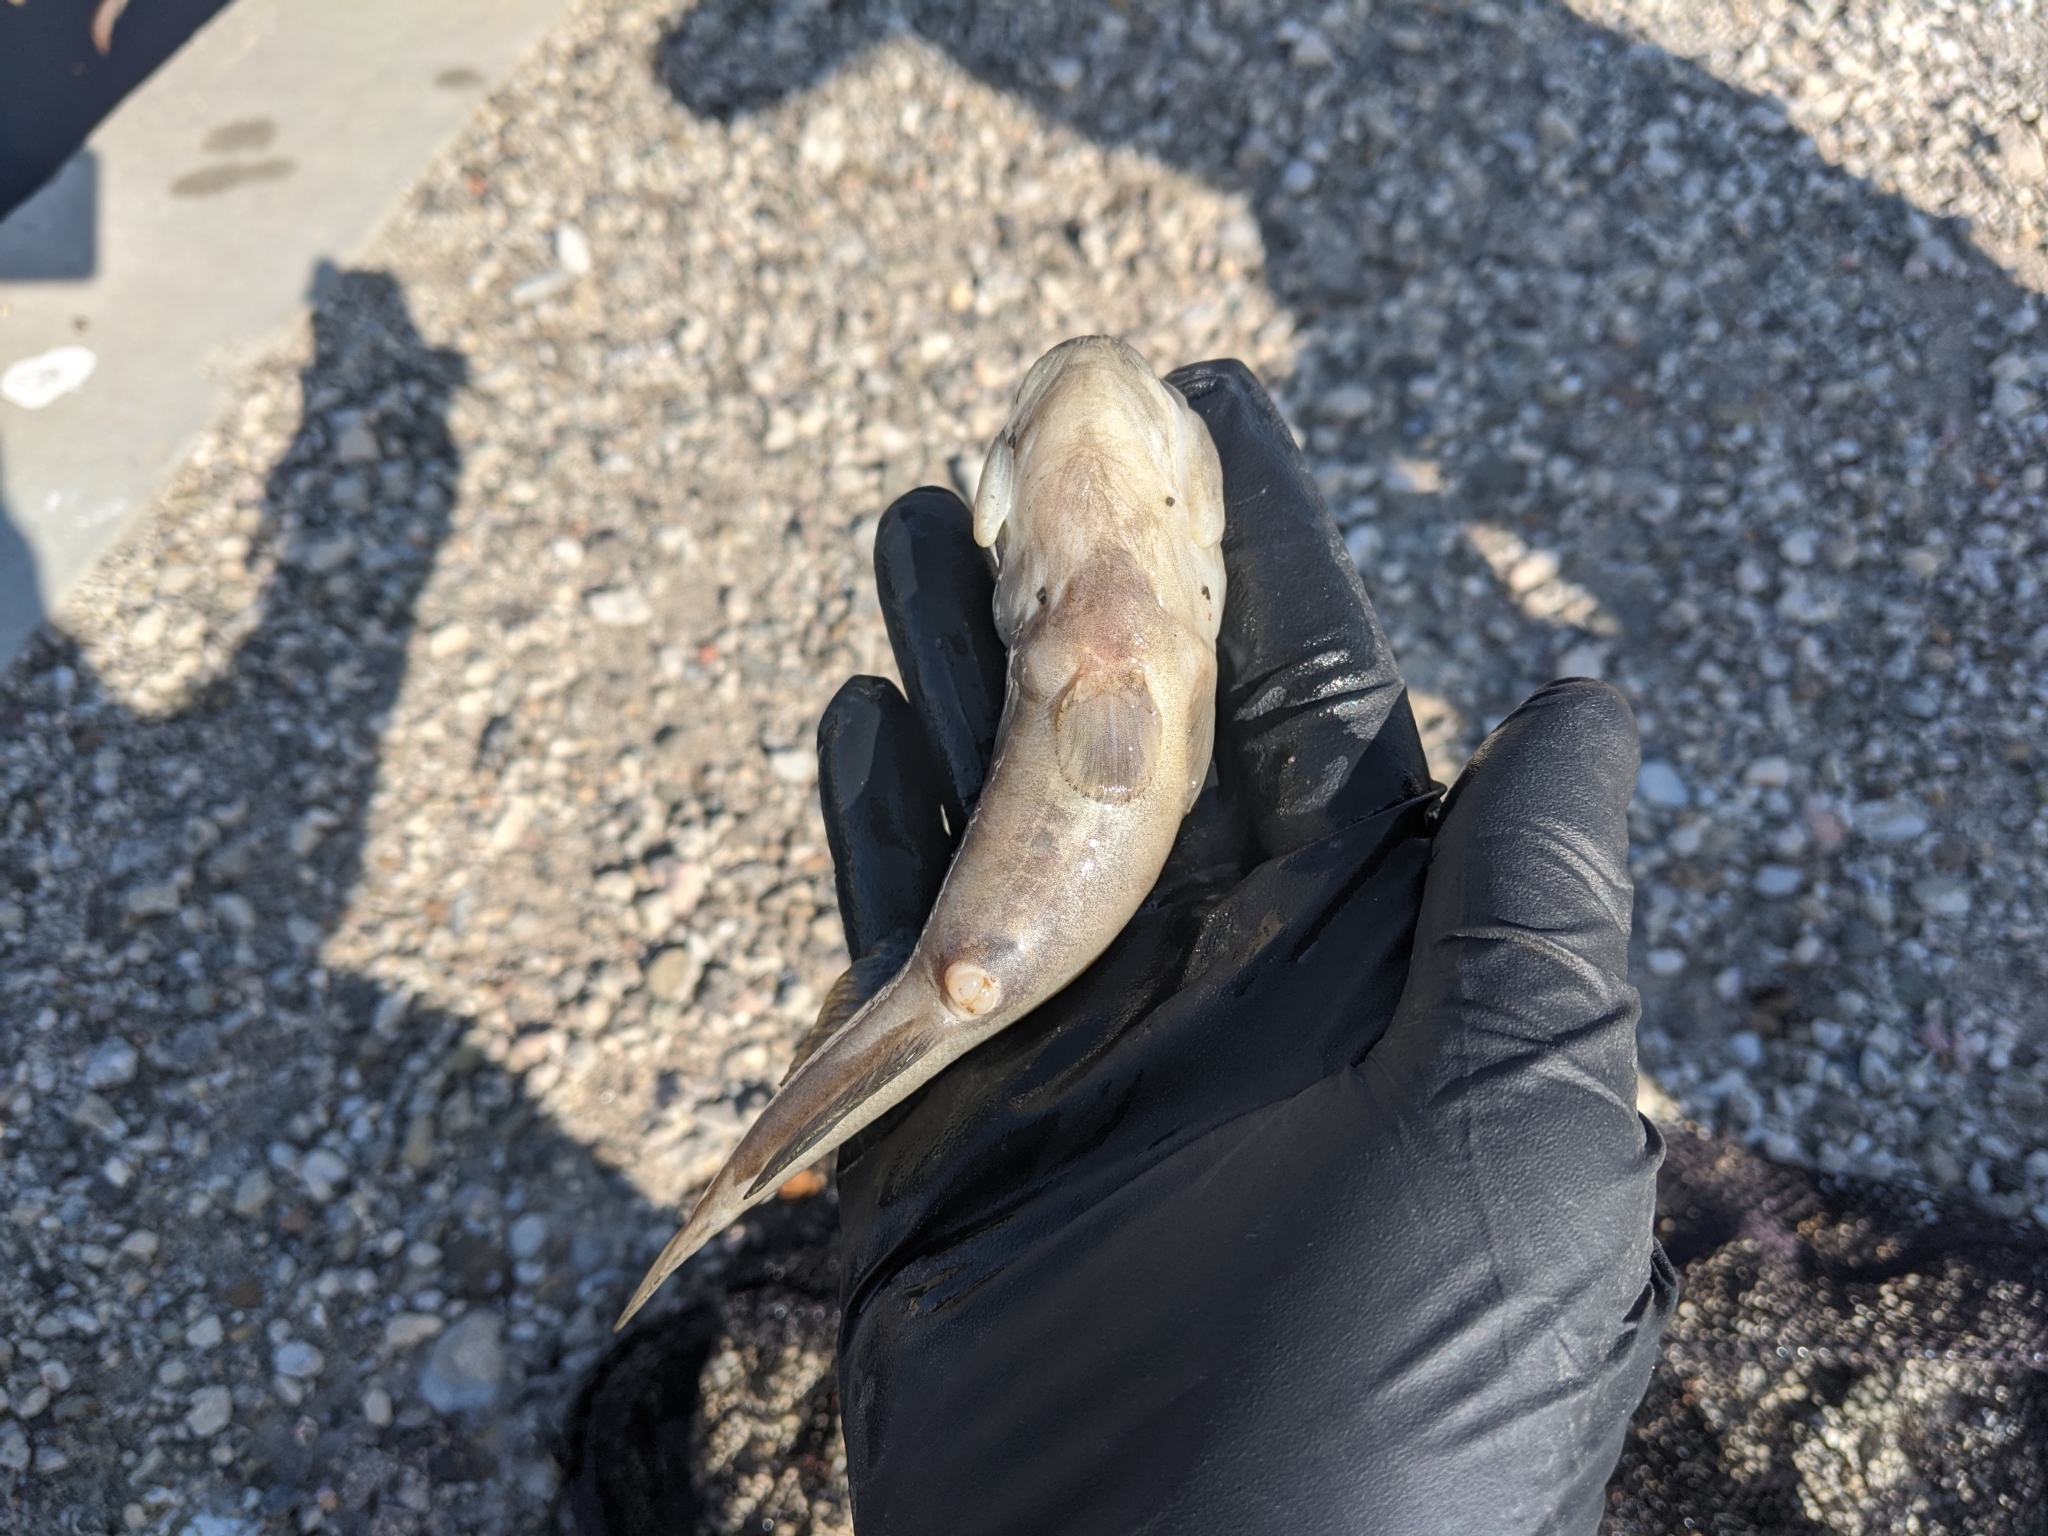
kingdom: Animalia
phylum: Chordata
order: Perciformes
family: Gobiidae
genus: Gillichthys
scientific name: Gillichthys mirabilis
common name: Longjaw mudsucker
